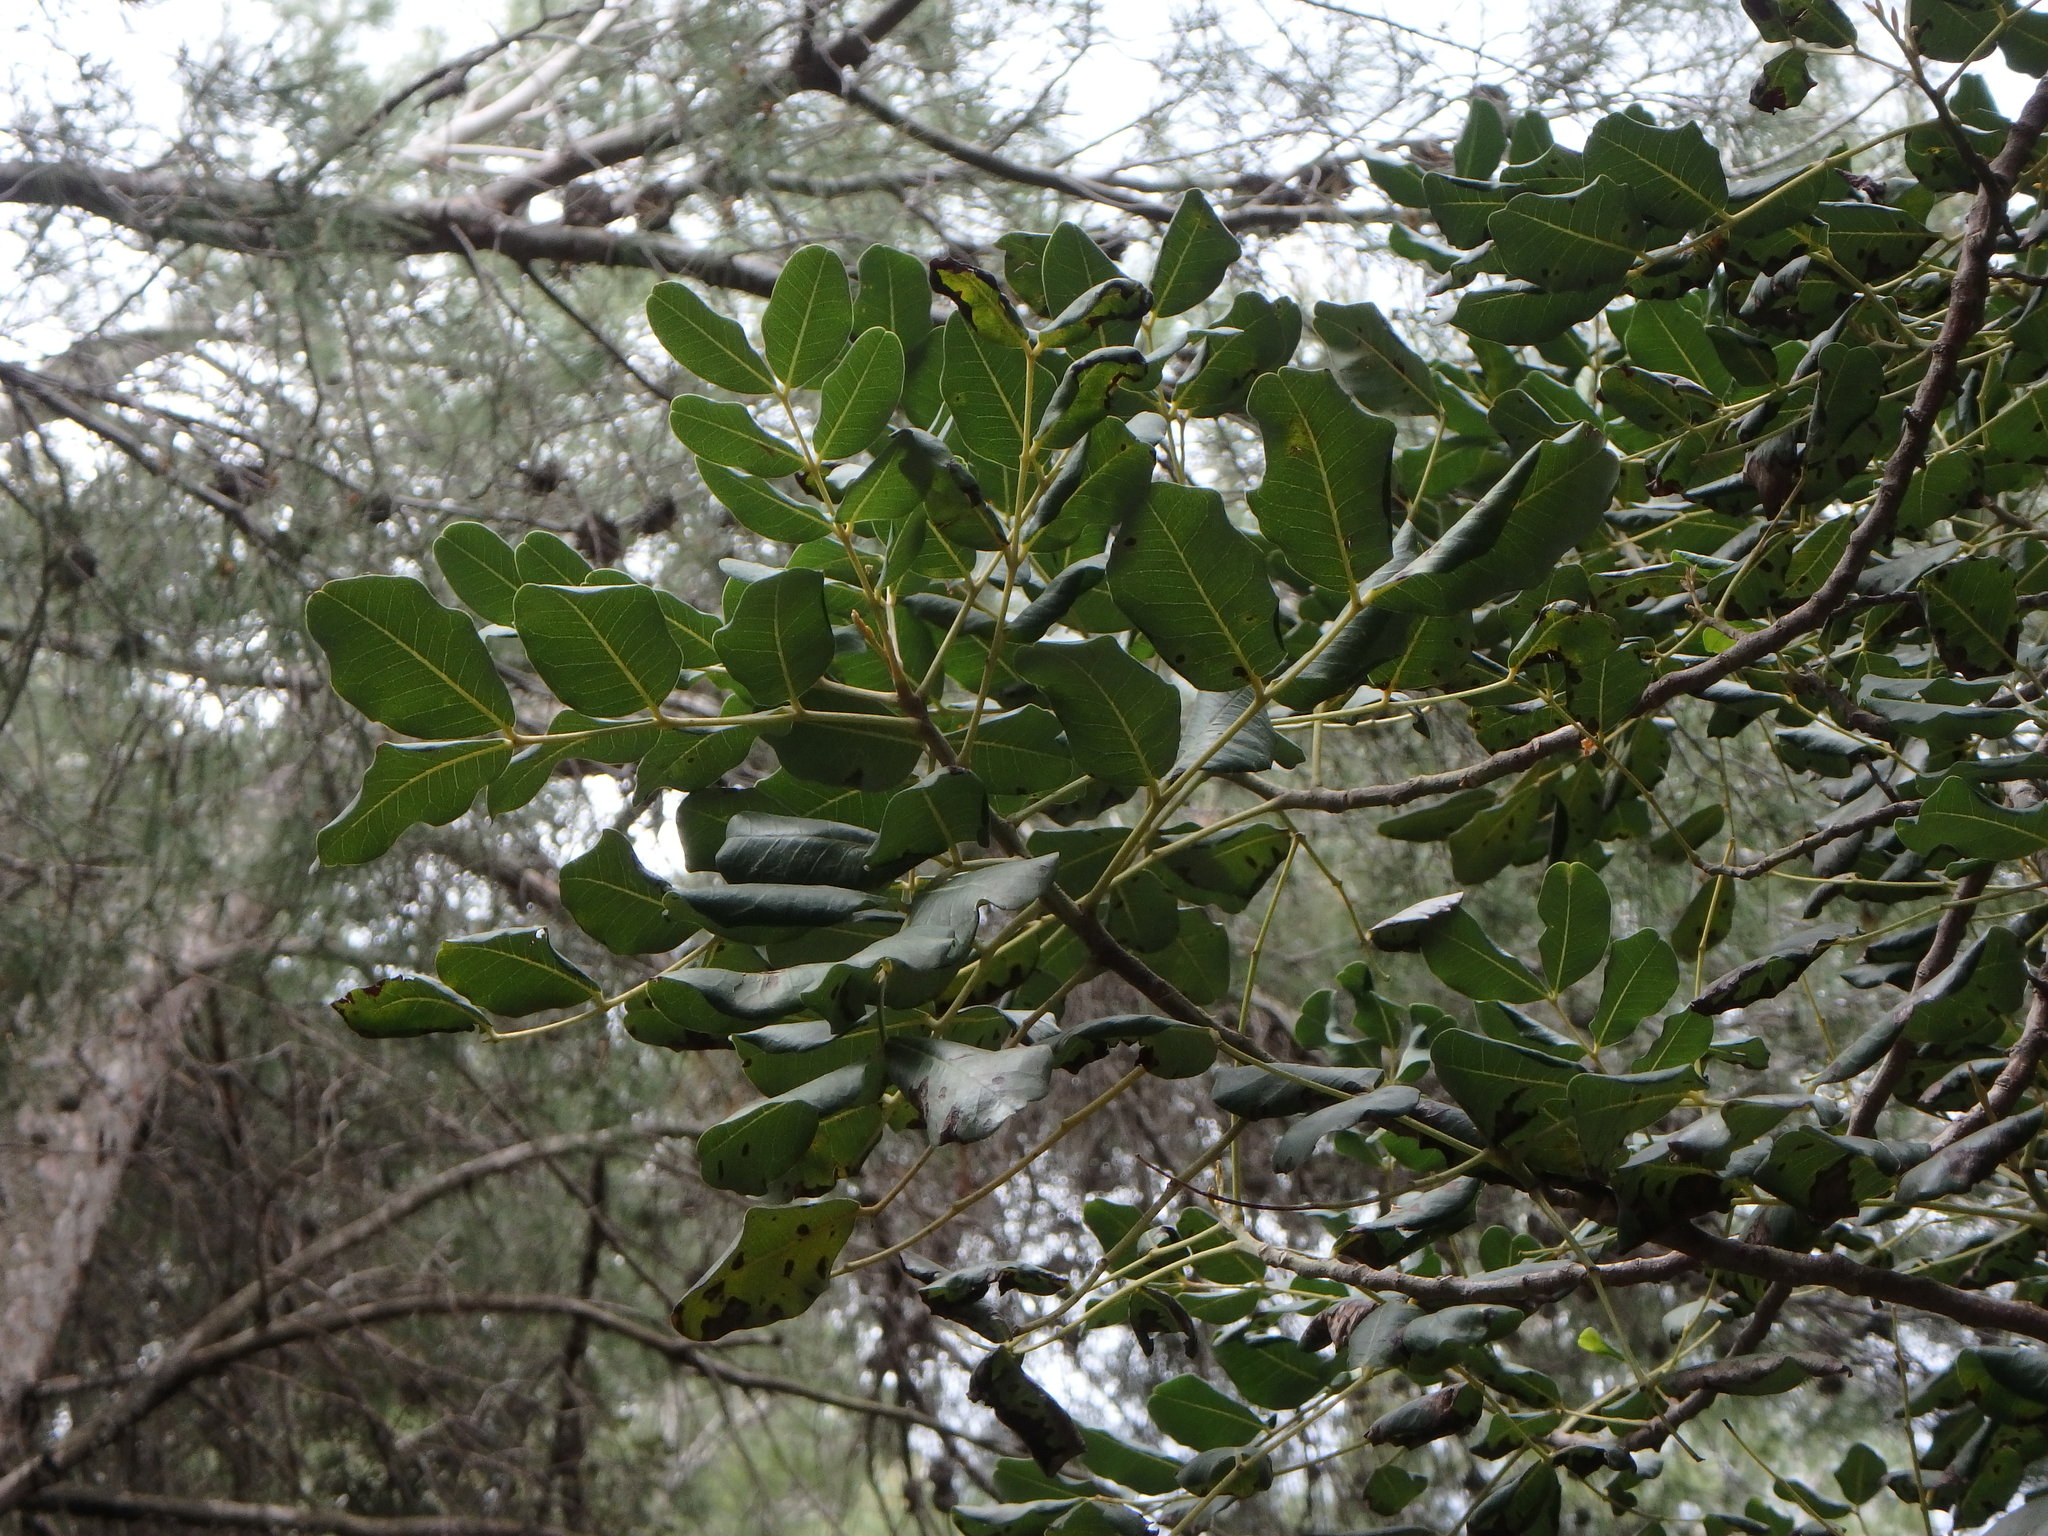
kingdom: Plantae
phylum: Tracheophyta
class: Magnoliopsida
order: Fabales
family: Fabaceae
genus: Ceratonia
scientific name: Ceratonia siliqua
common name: Carob
